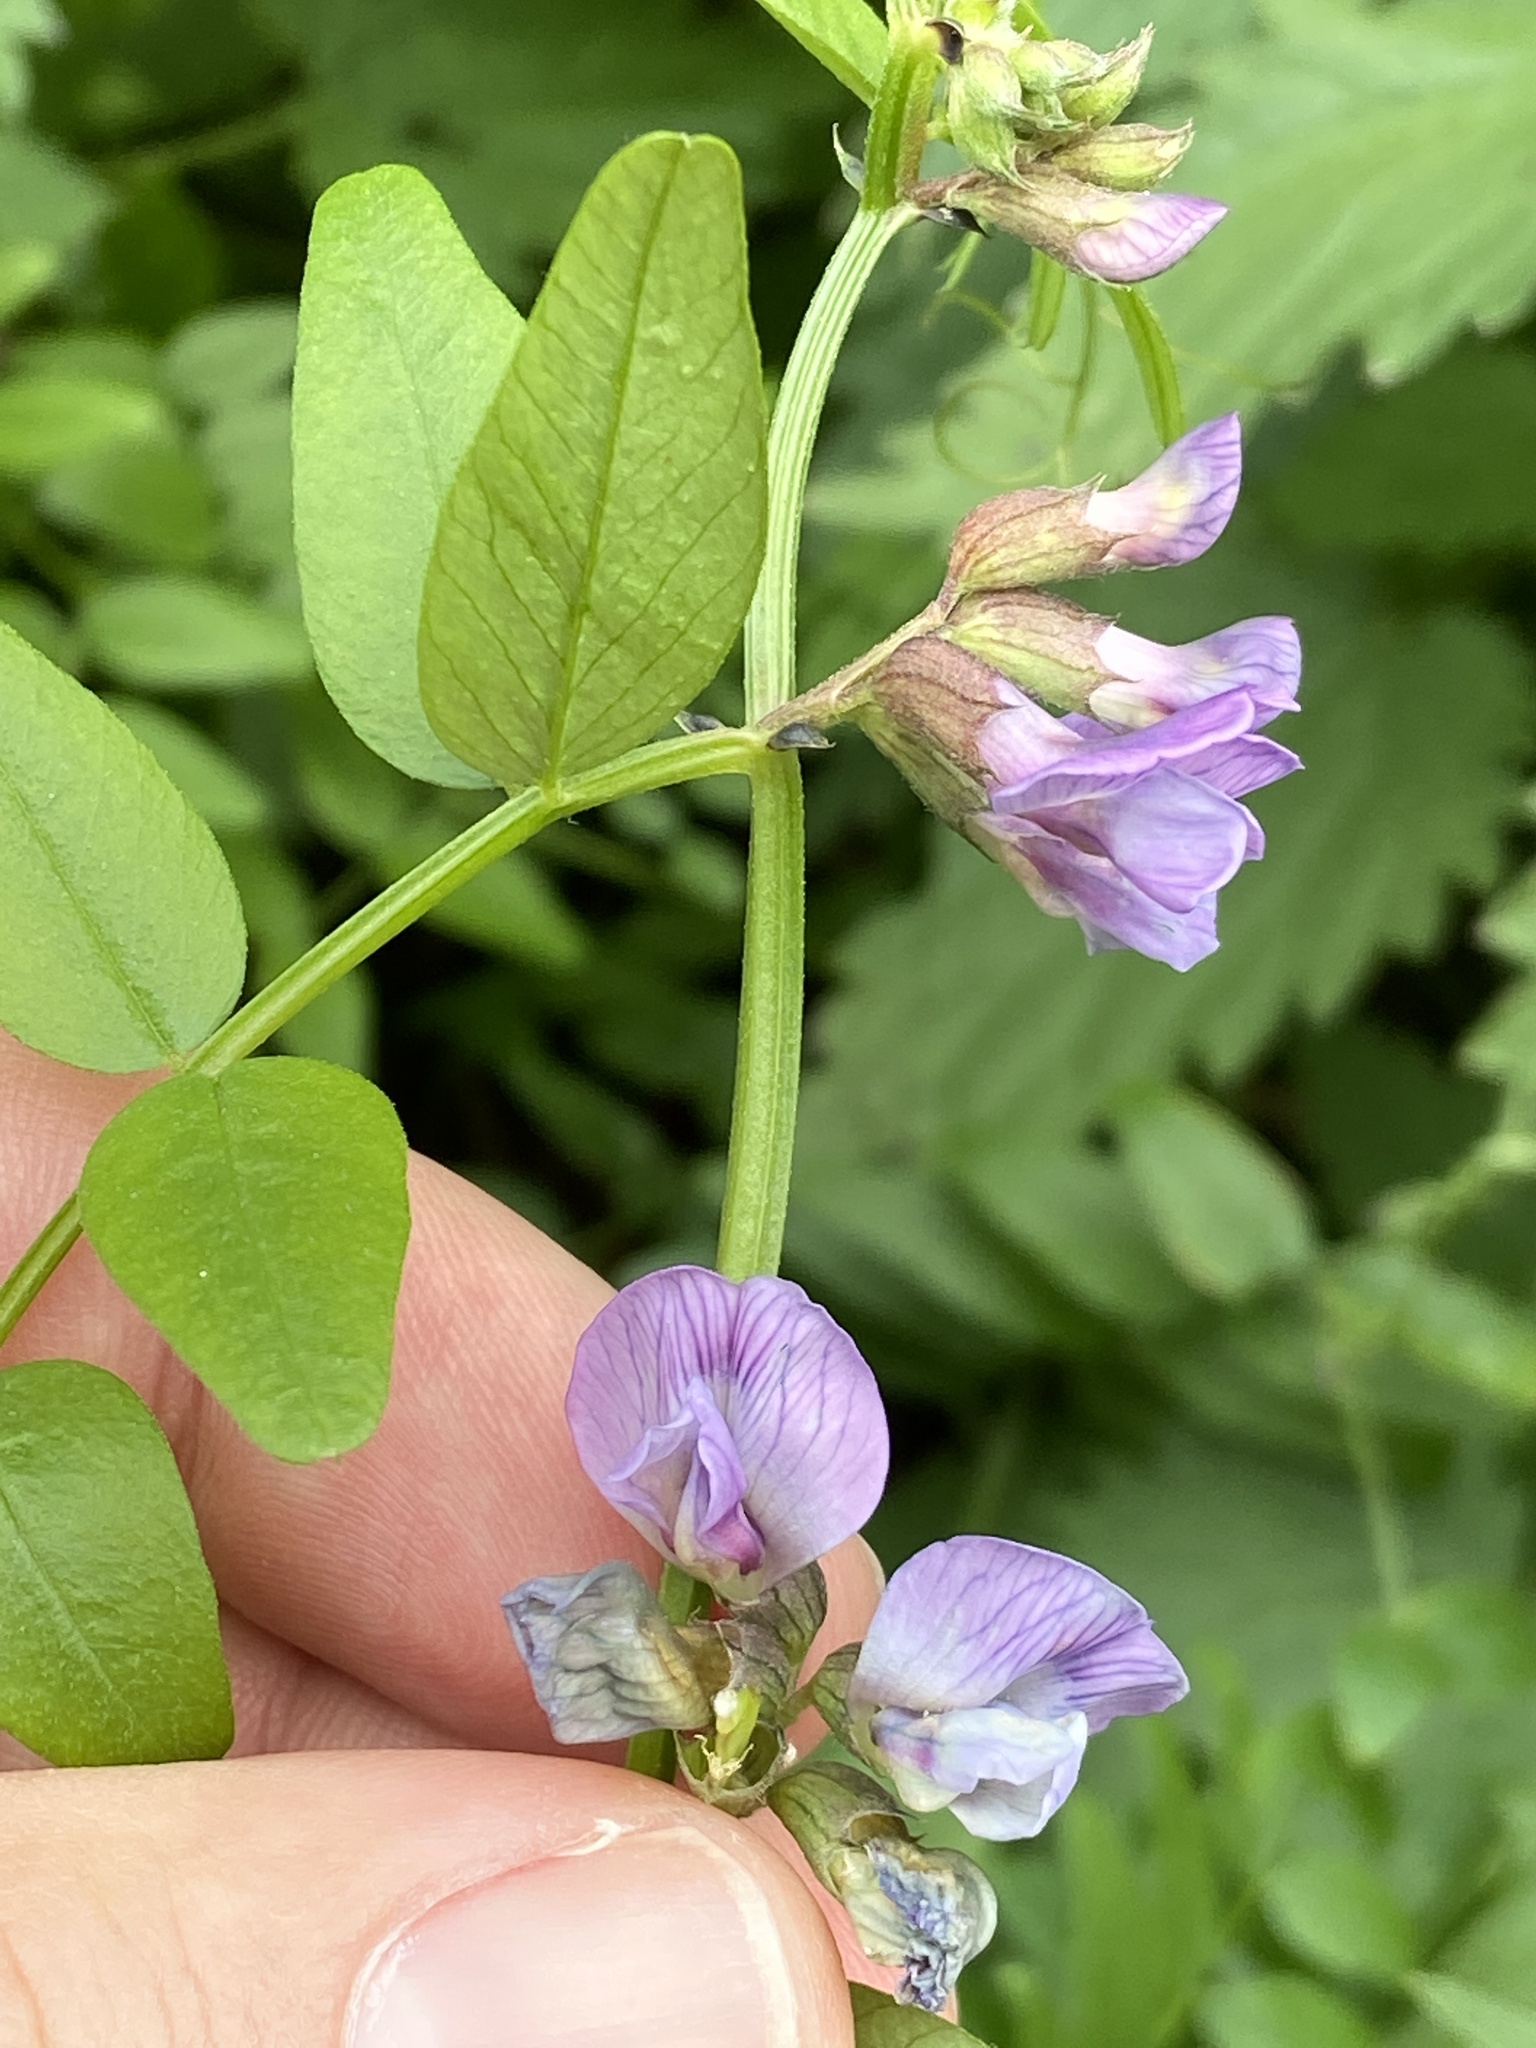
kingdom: Plantae
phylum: Tracheophyta
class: Magnoliopsida
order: Fabales
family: Fabaceae
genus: Vicia
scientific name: Vicia sepium
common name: Bush vetch
